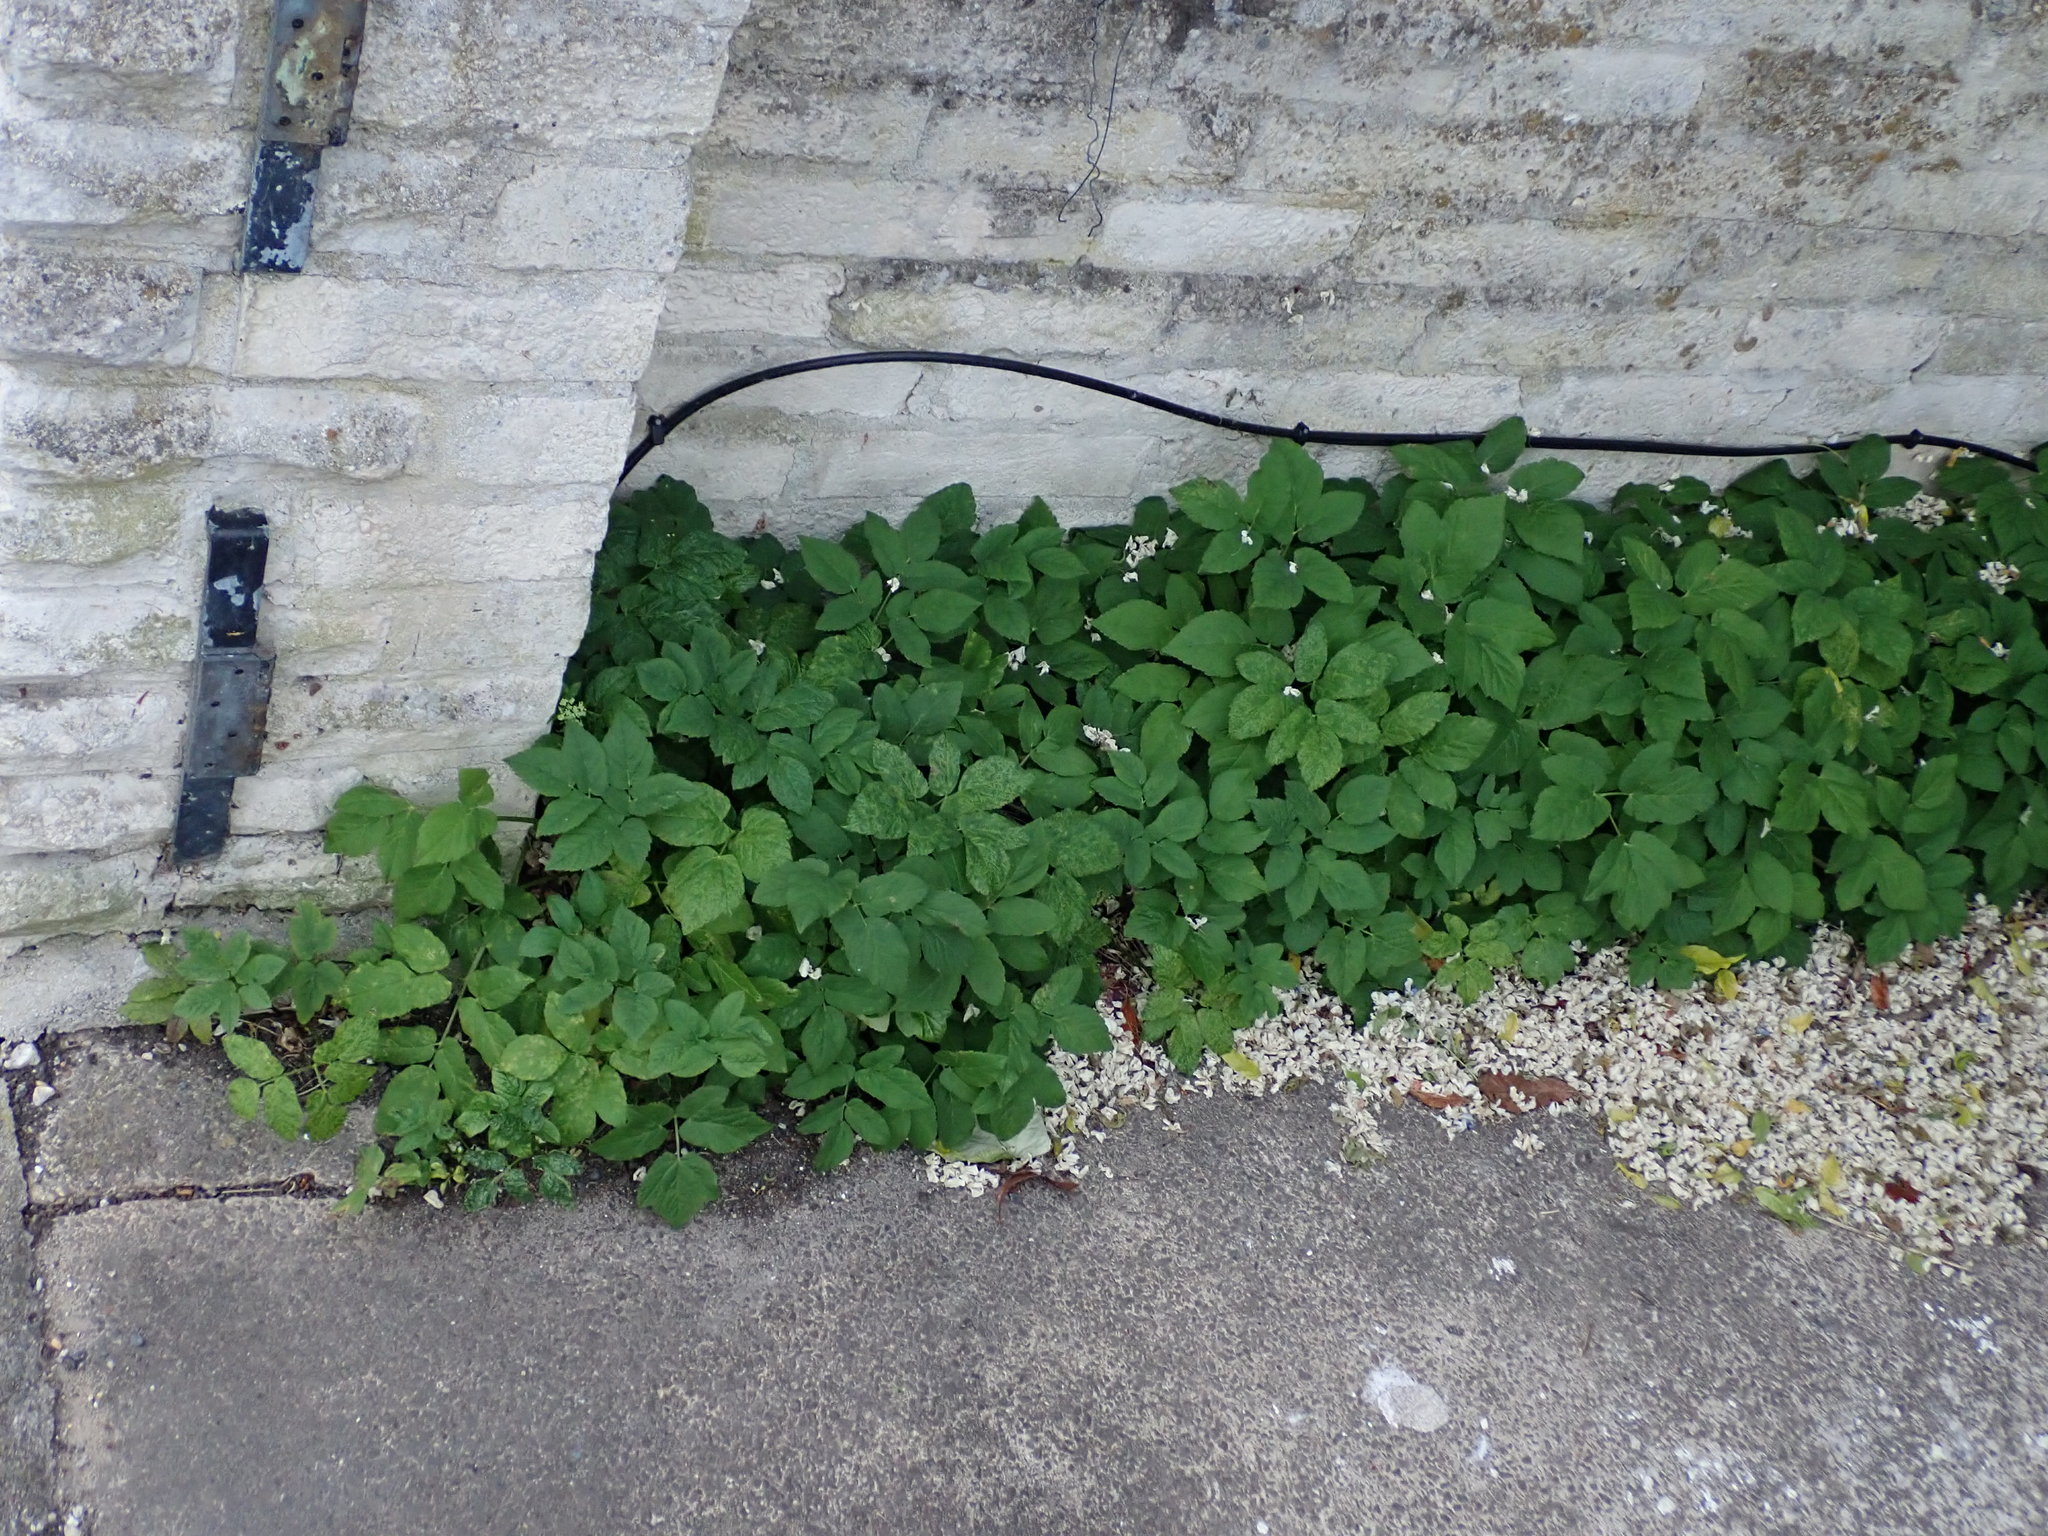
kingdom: Plantae
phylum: Tracheophyta
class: Magnoliopsida
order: Apiales
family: Apiaceae
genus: Aegopodium
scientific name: Aegopodium podagraria
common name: Ground-elder
